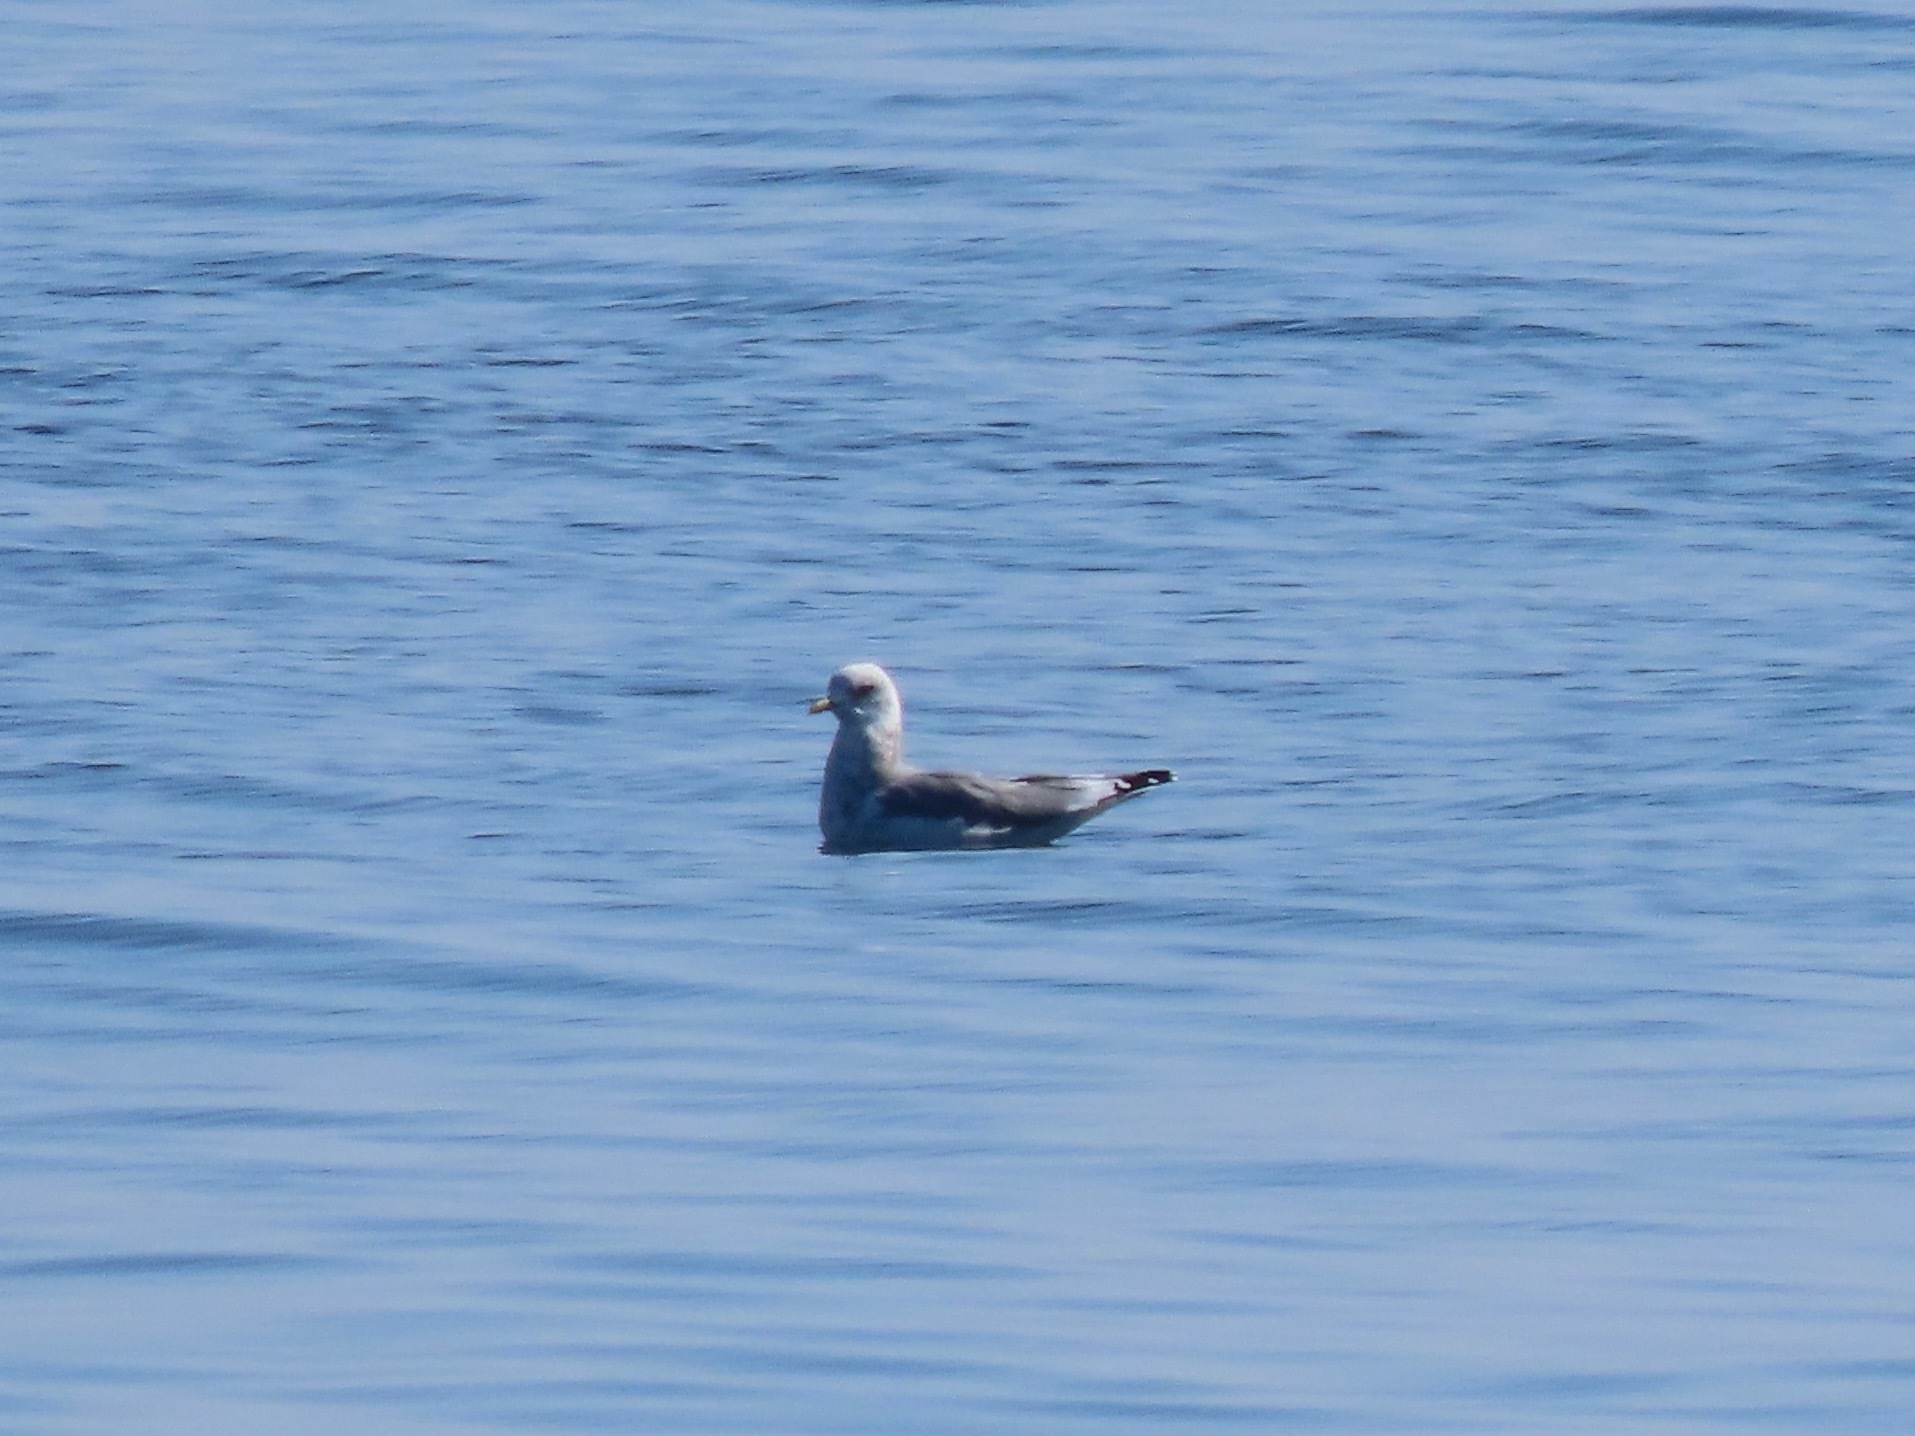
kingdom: Animalia
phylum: Chordata
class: Aves
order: Charadriiformes
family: Laridae
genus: Larus
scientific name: Larus brachyrhynchus
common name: Short-billed gull
